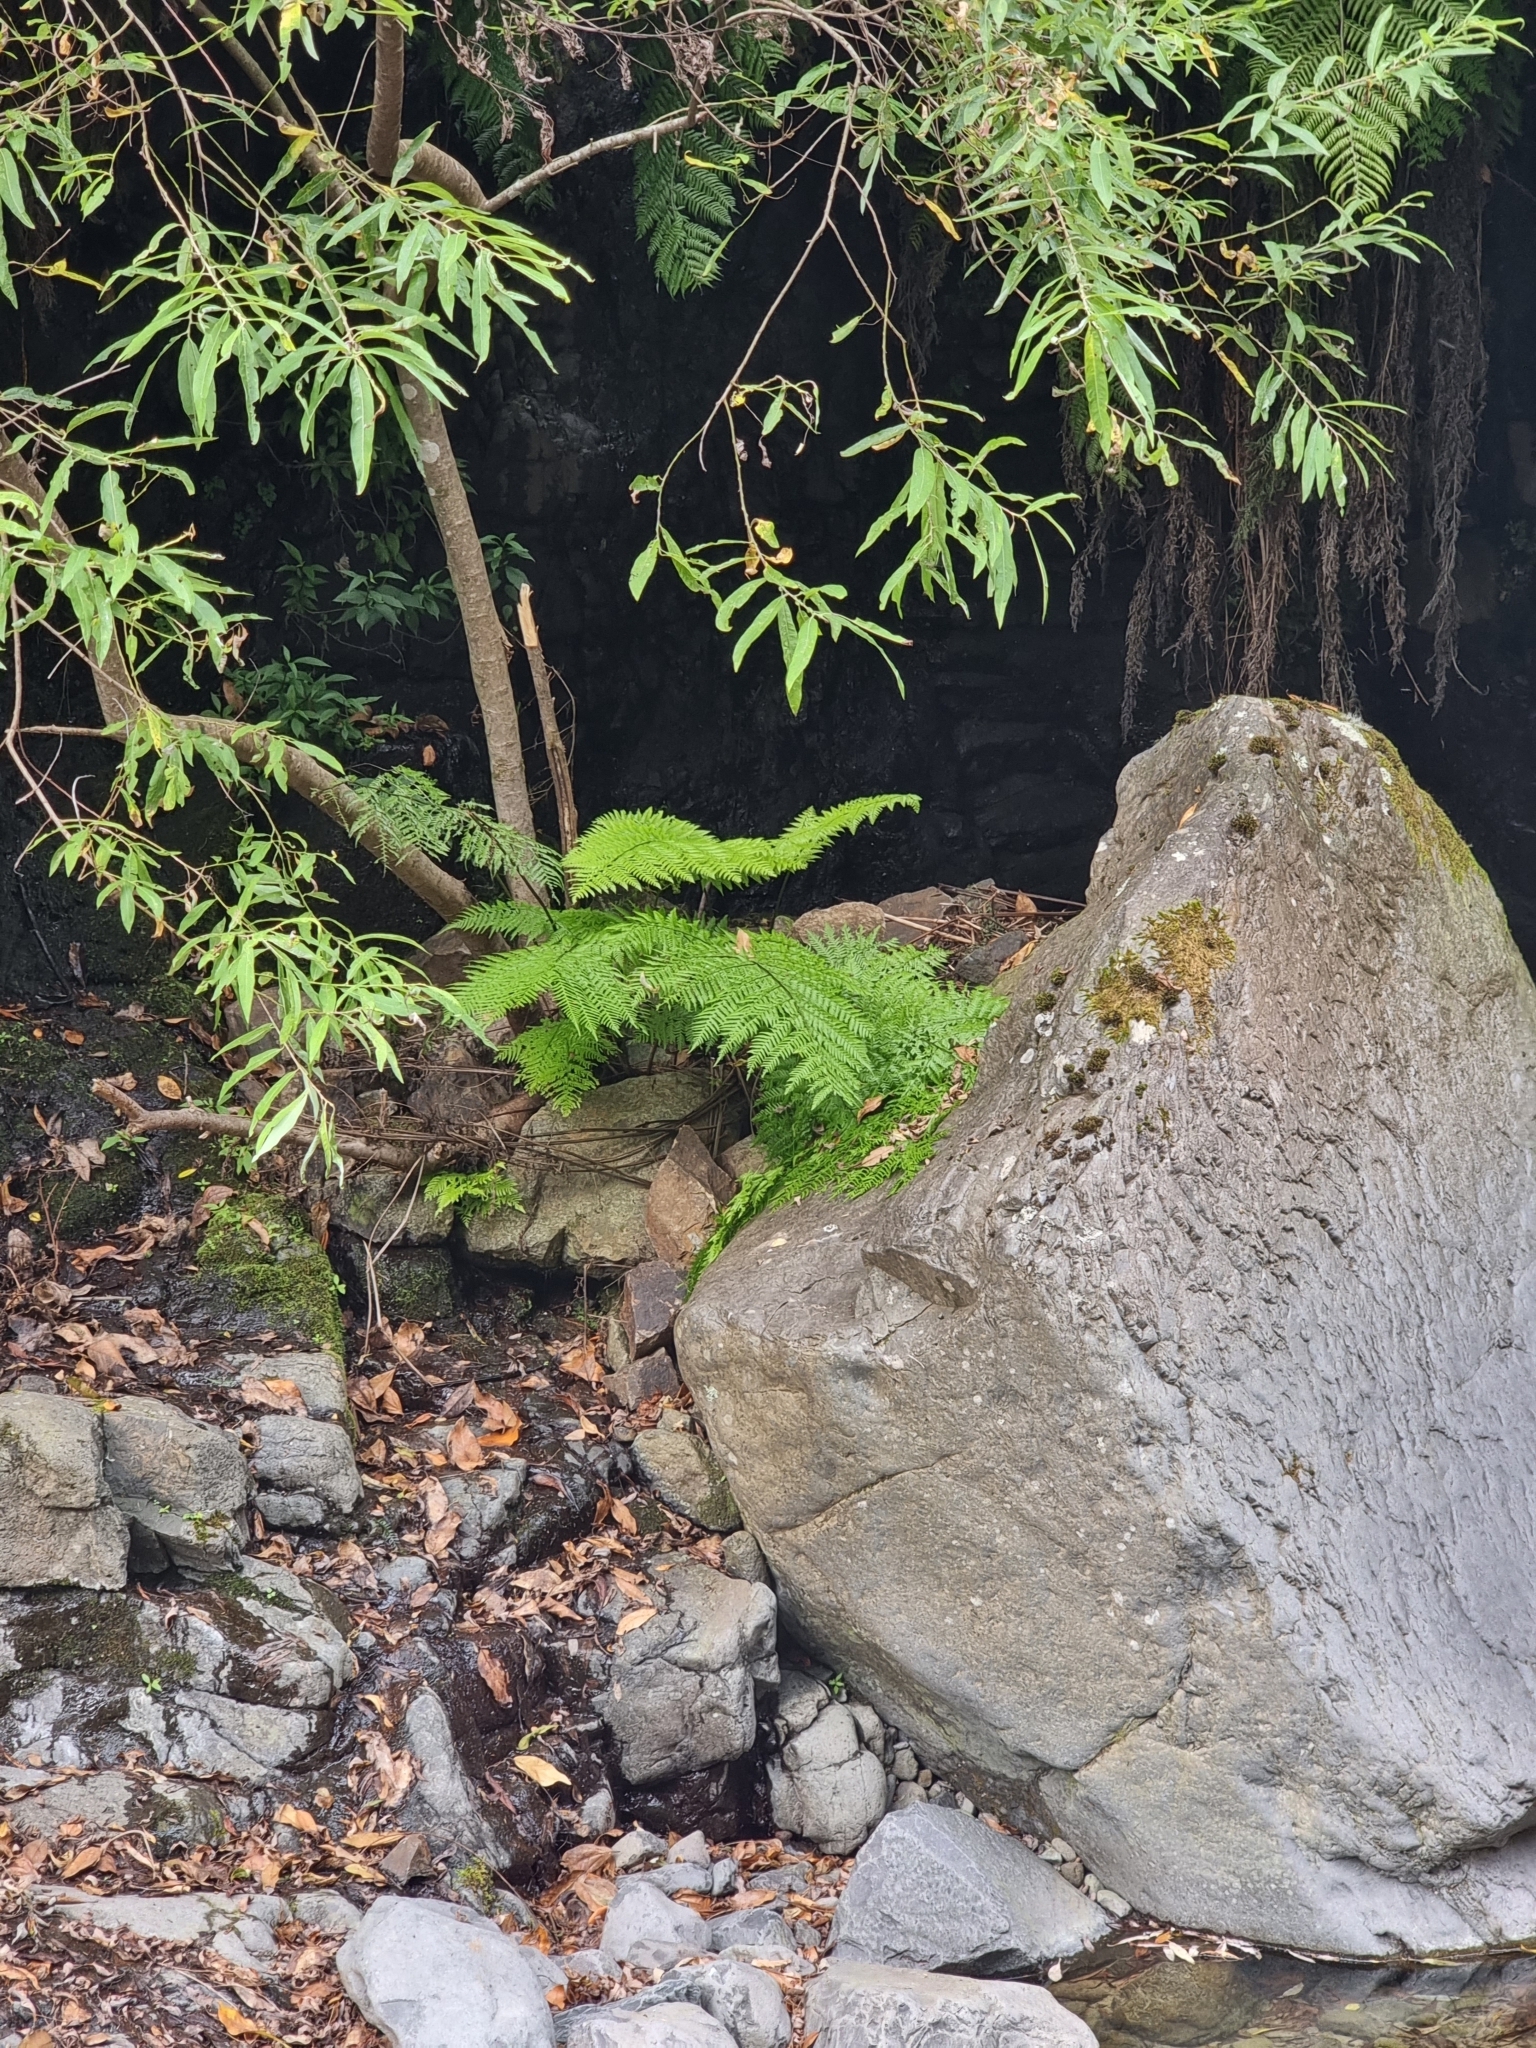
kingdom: Plantae
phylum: Tracheophyta
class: Polypodiopsida
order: Polypodiales
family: Athyriaceae
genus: Diplazium
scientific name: Diplazium caudatum
